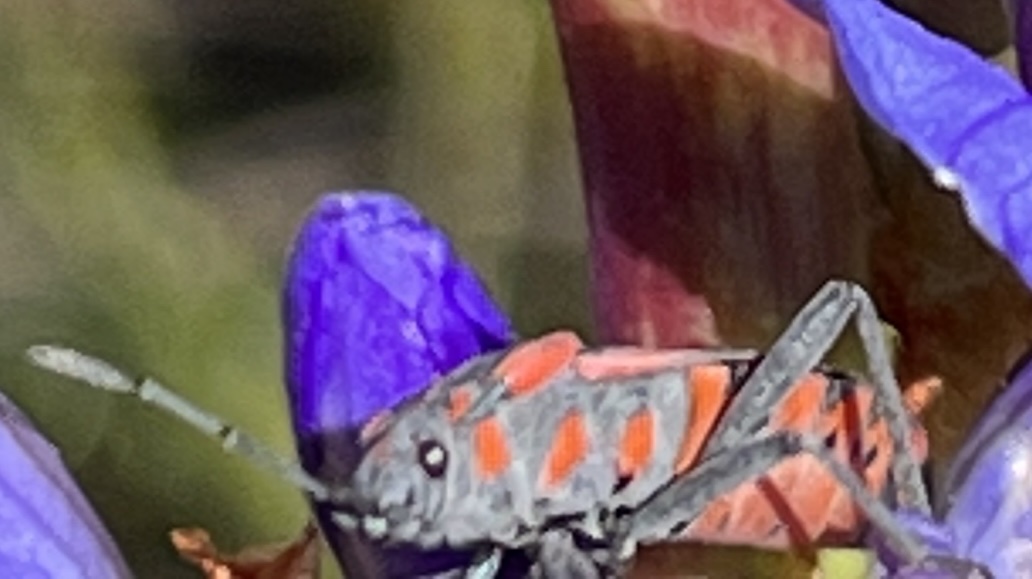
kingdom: Animalia
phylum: Arthropoda
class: Insecta
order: Hemiptera
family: Lygaeidae
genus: Spilostethus
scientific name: Spilostethus crudelis
